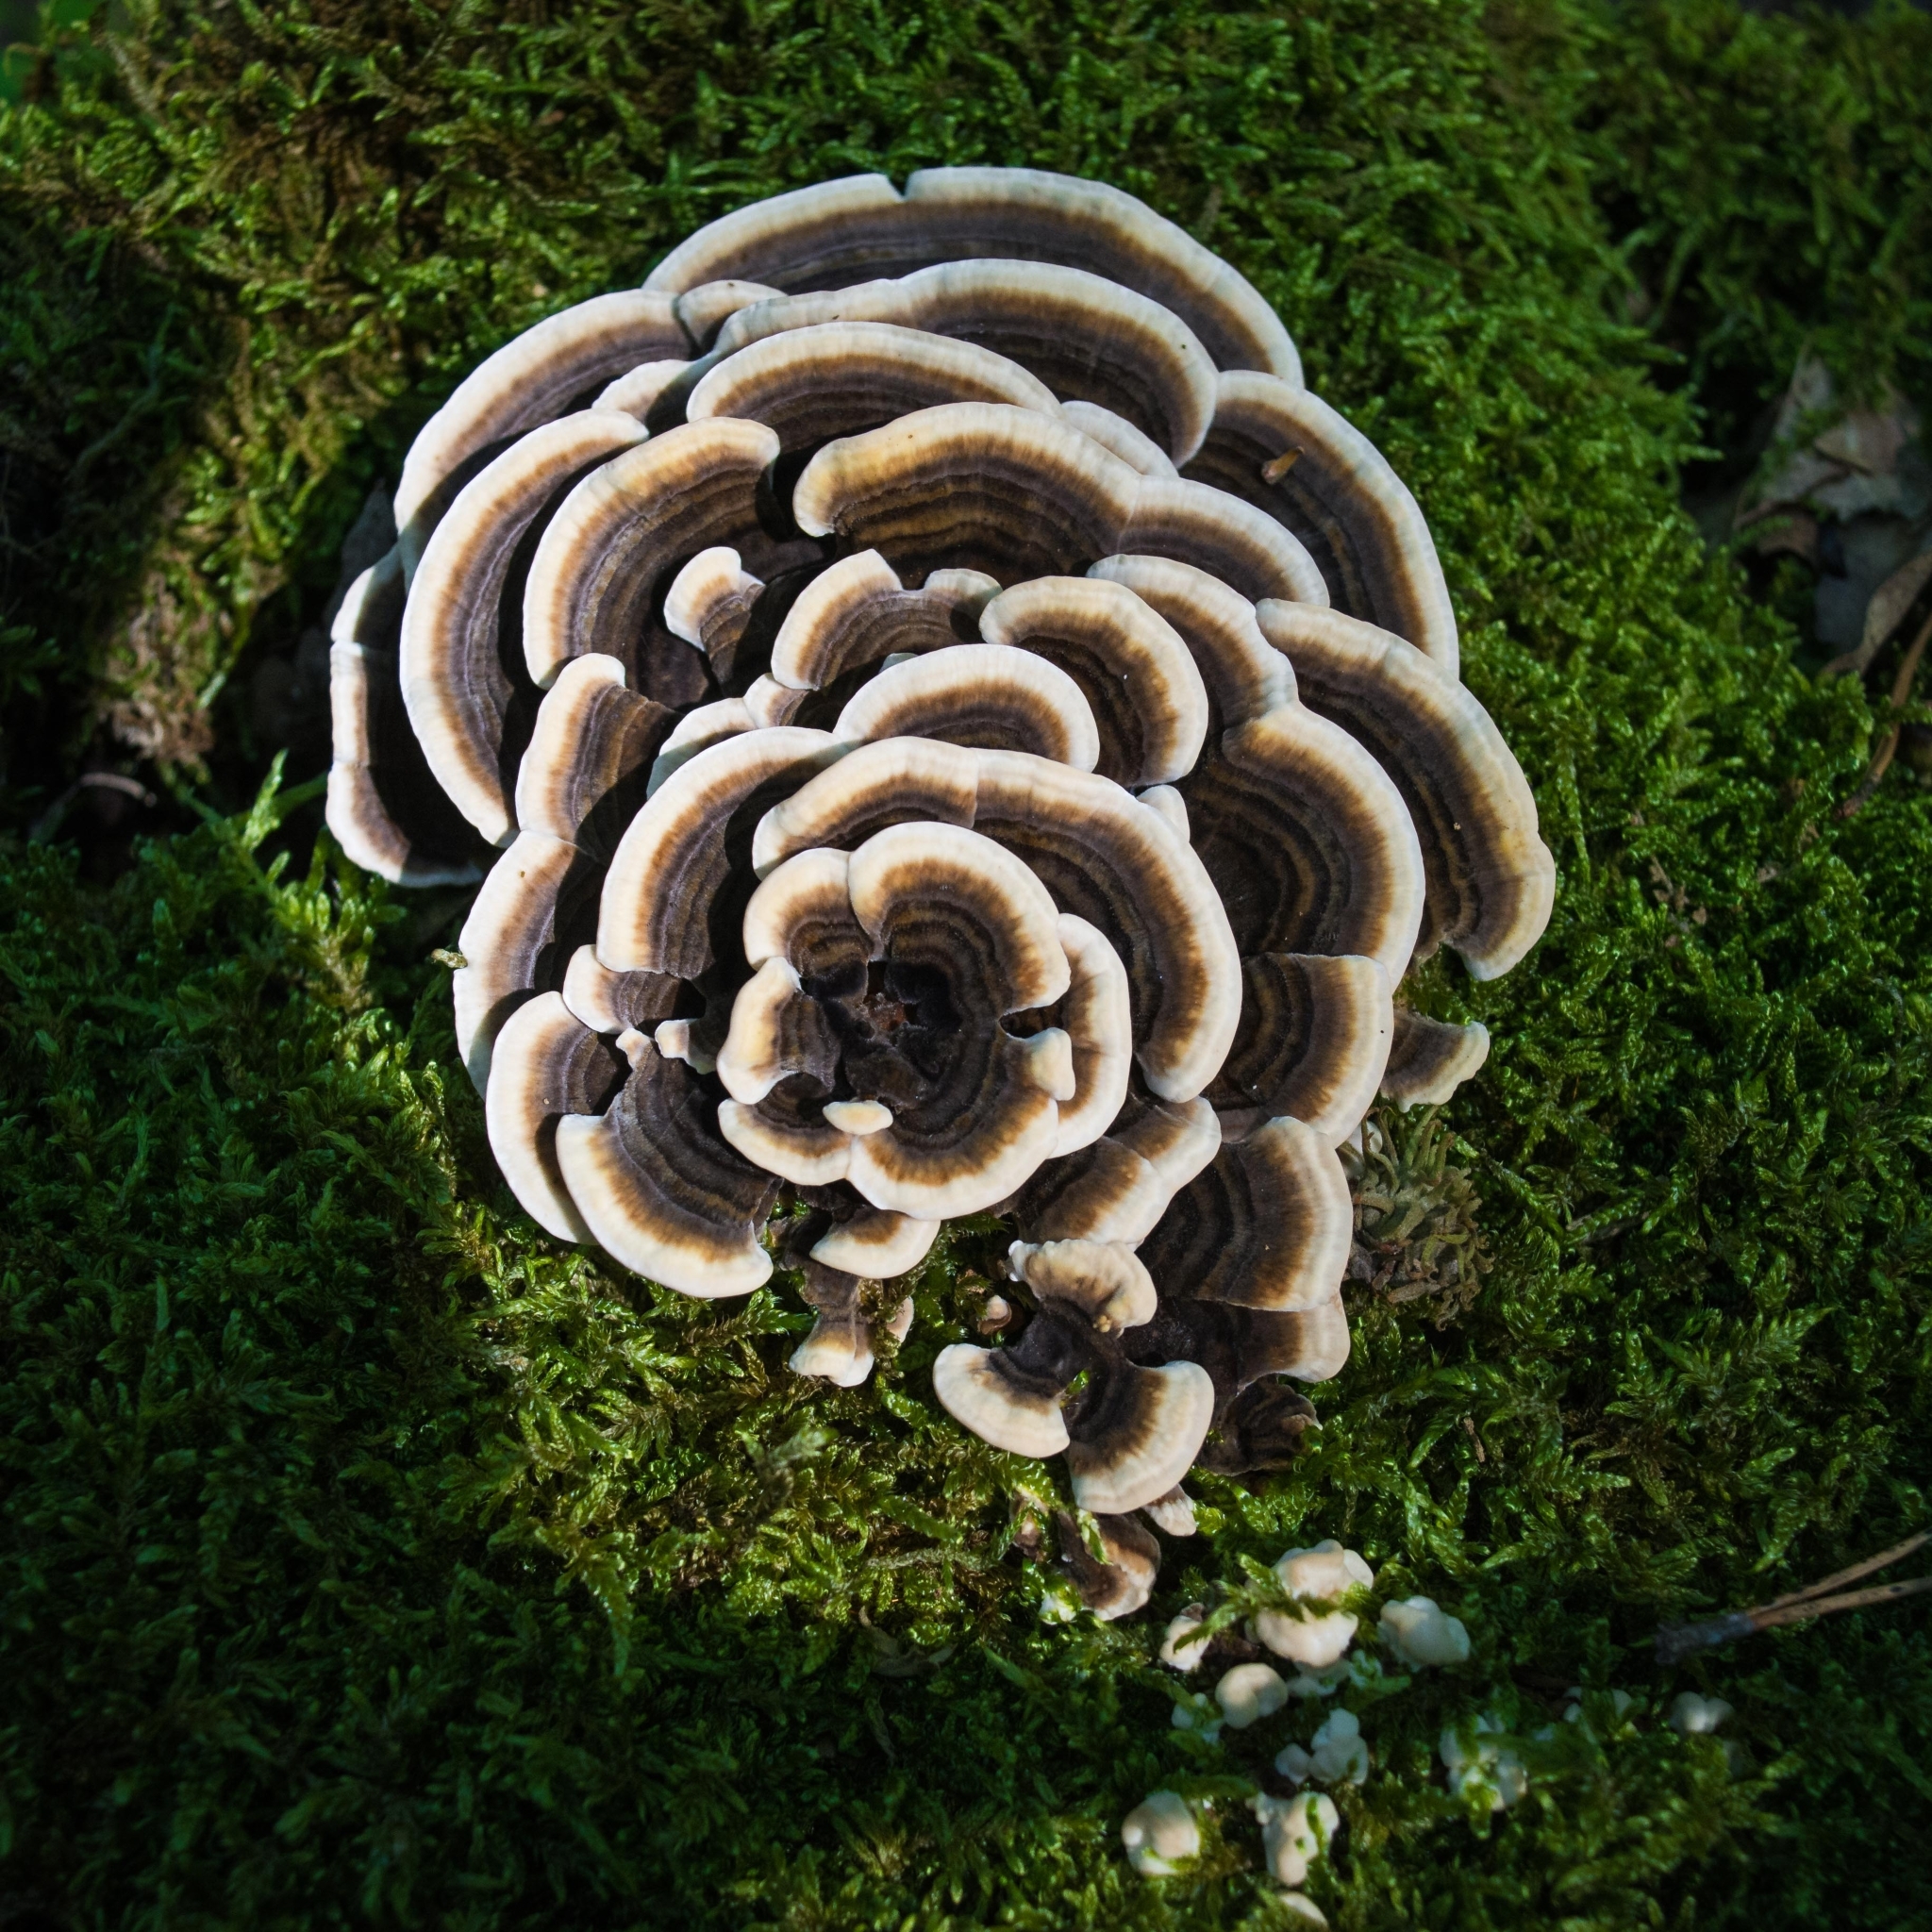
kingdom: Fungi
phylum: Basidiomycota
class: Agaricomycetes
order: Polyporales
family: Polyporaceae
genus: Trametes
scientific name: Trametes versicolor
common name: Turkeytail
